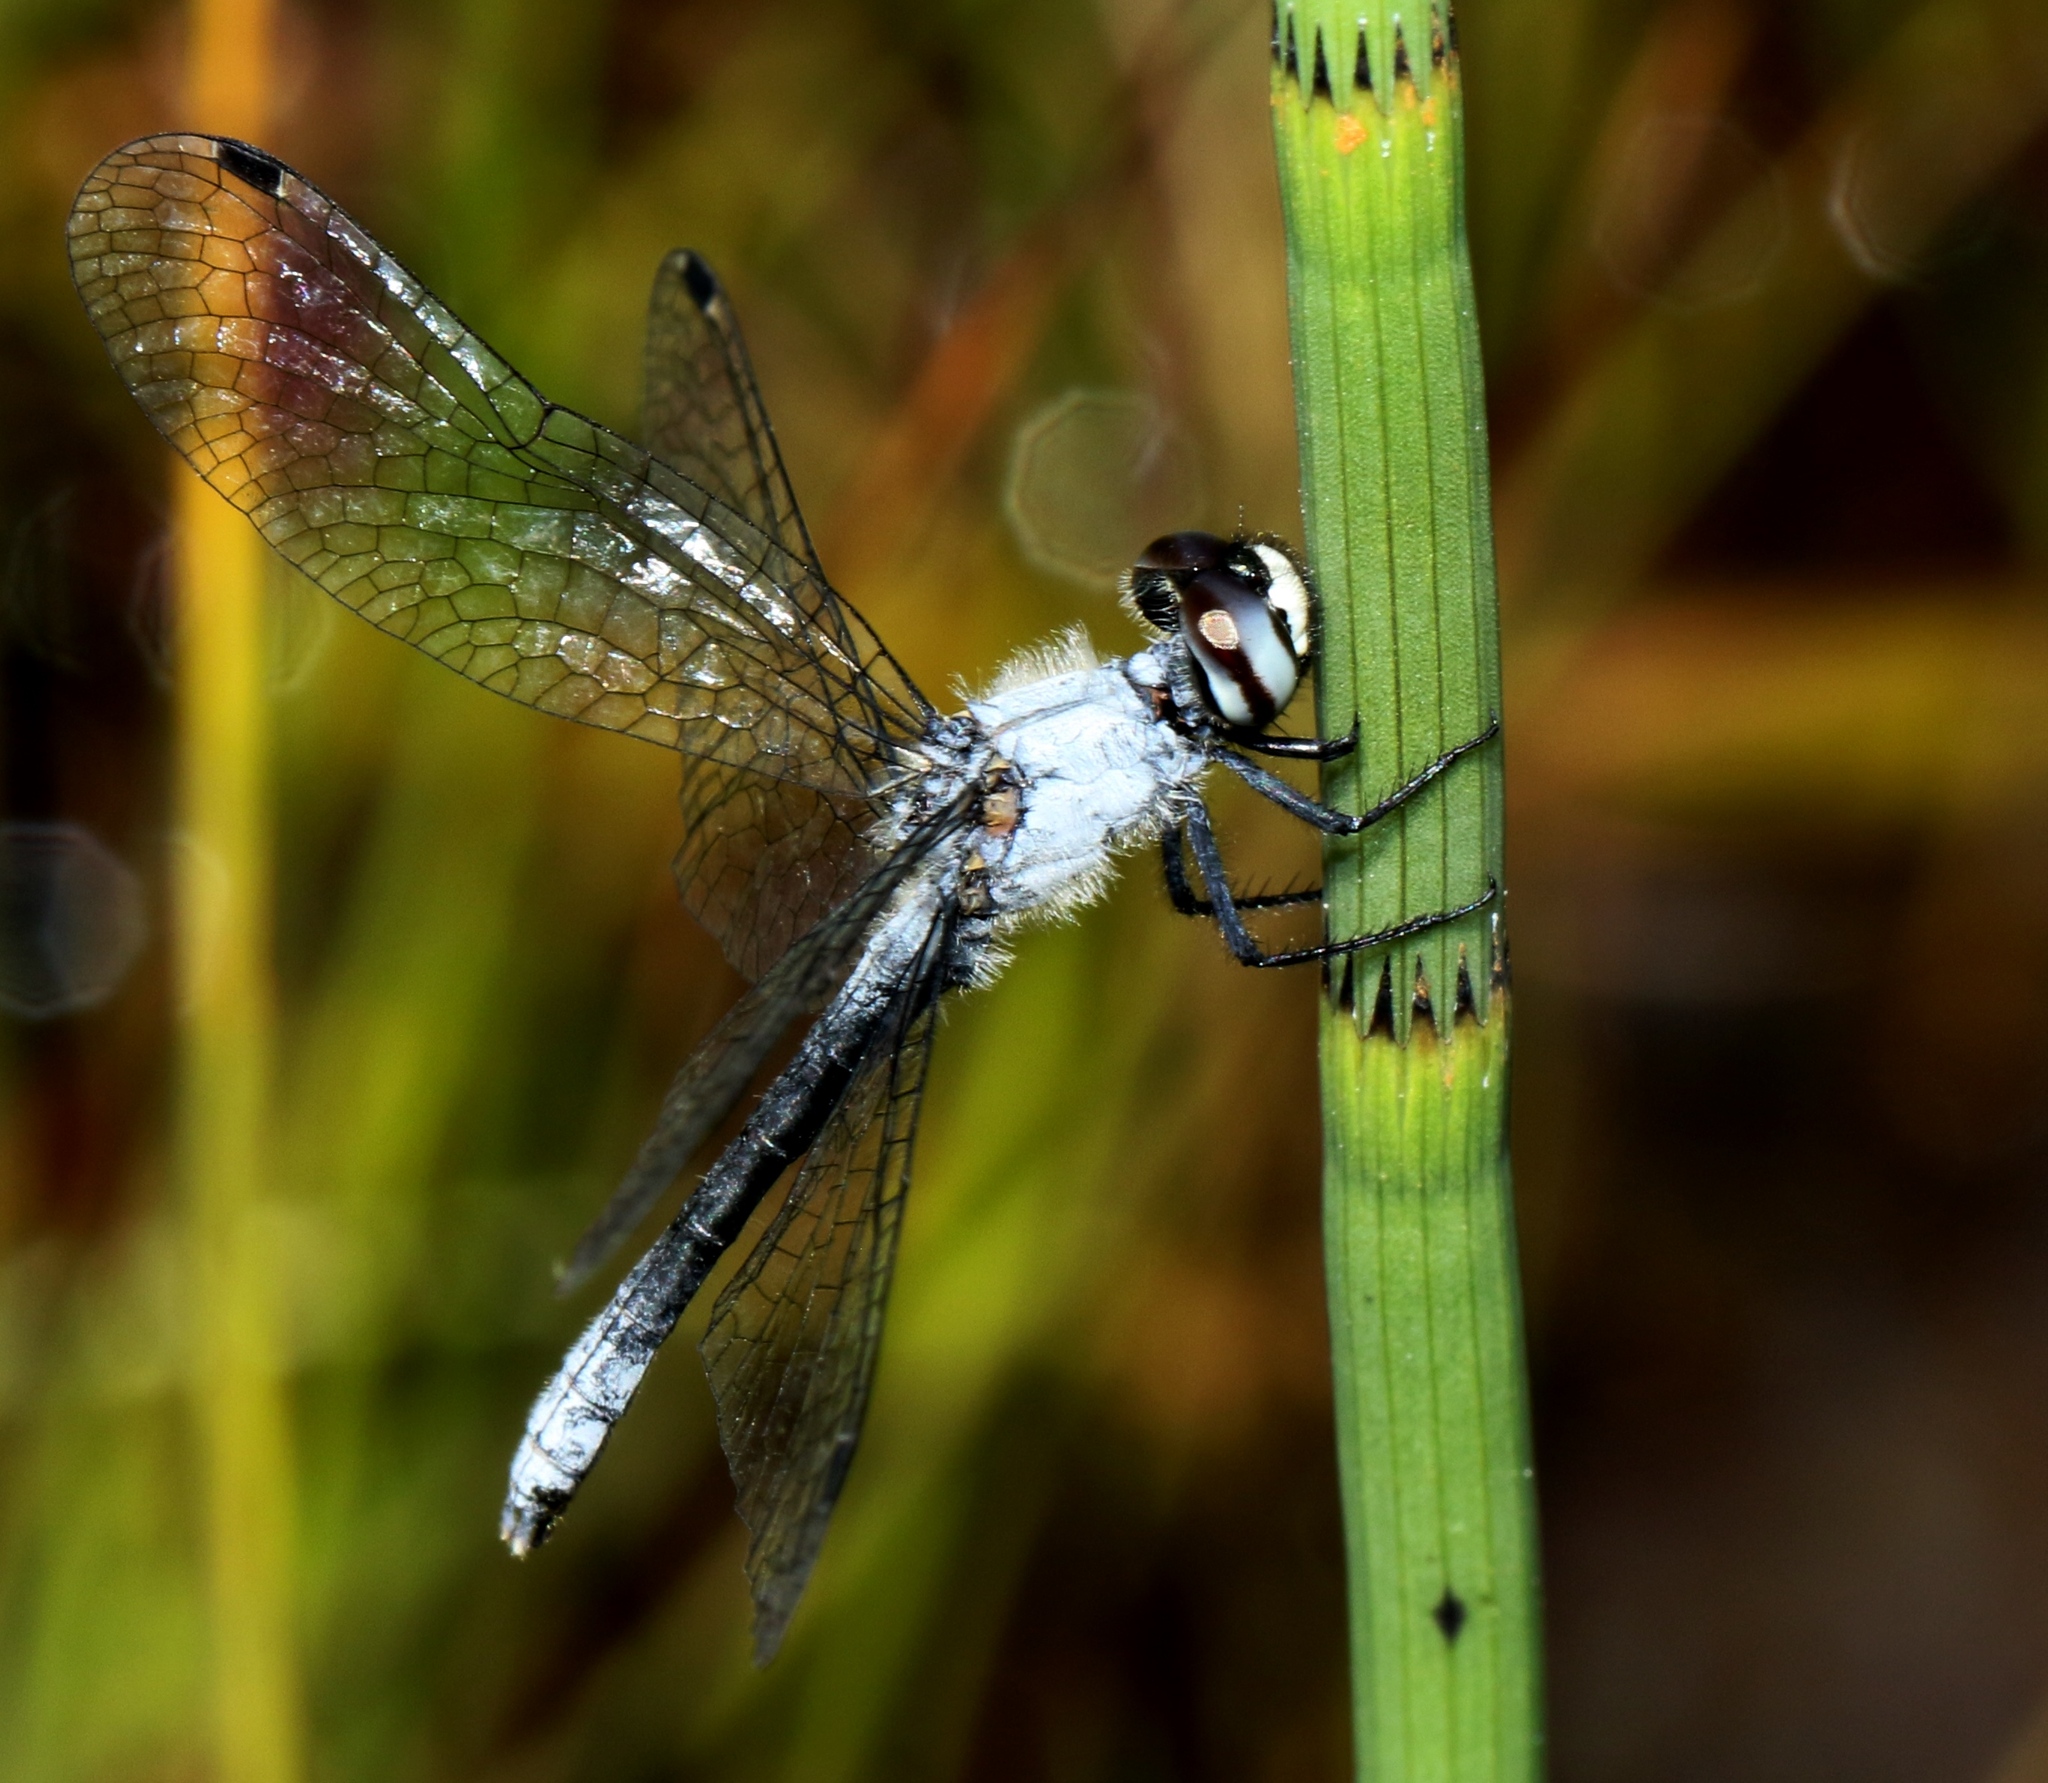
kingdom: Animalia
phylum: Arthropoda
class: Insecta
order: Odonata
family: Libellulidae
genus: Nannothemis
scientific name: Nannothemis bella
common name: Elfin skimmer
